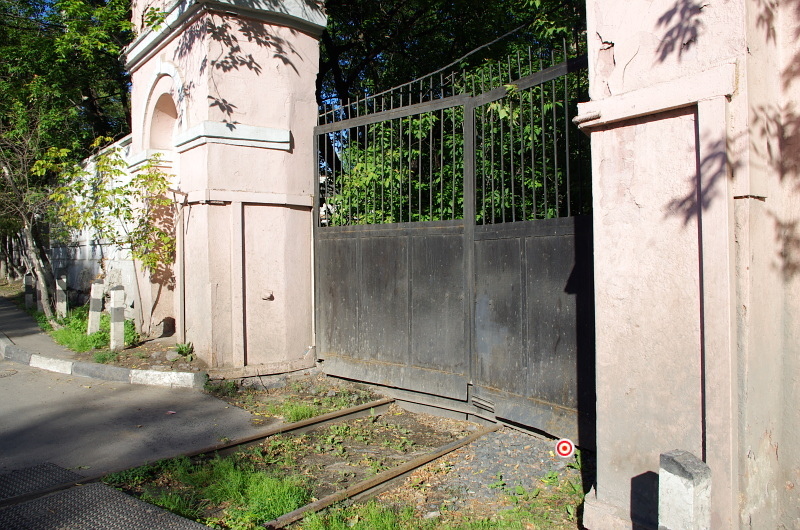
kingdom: Plantae
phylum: Tracheophyta
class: Magnoliopsida
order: Asterales
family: Asteraceae
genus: Taraxacum
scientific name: Taraxacum officinale
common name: Common dandelion
